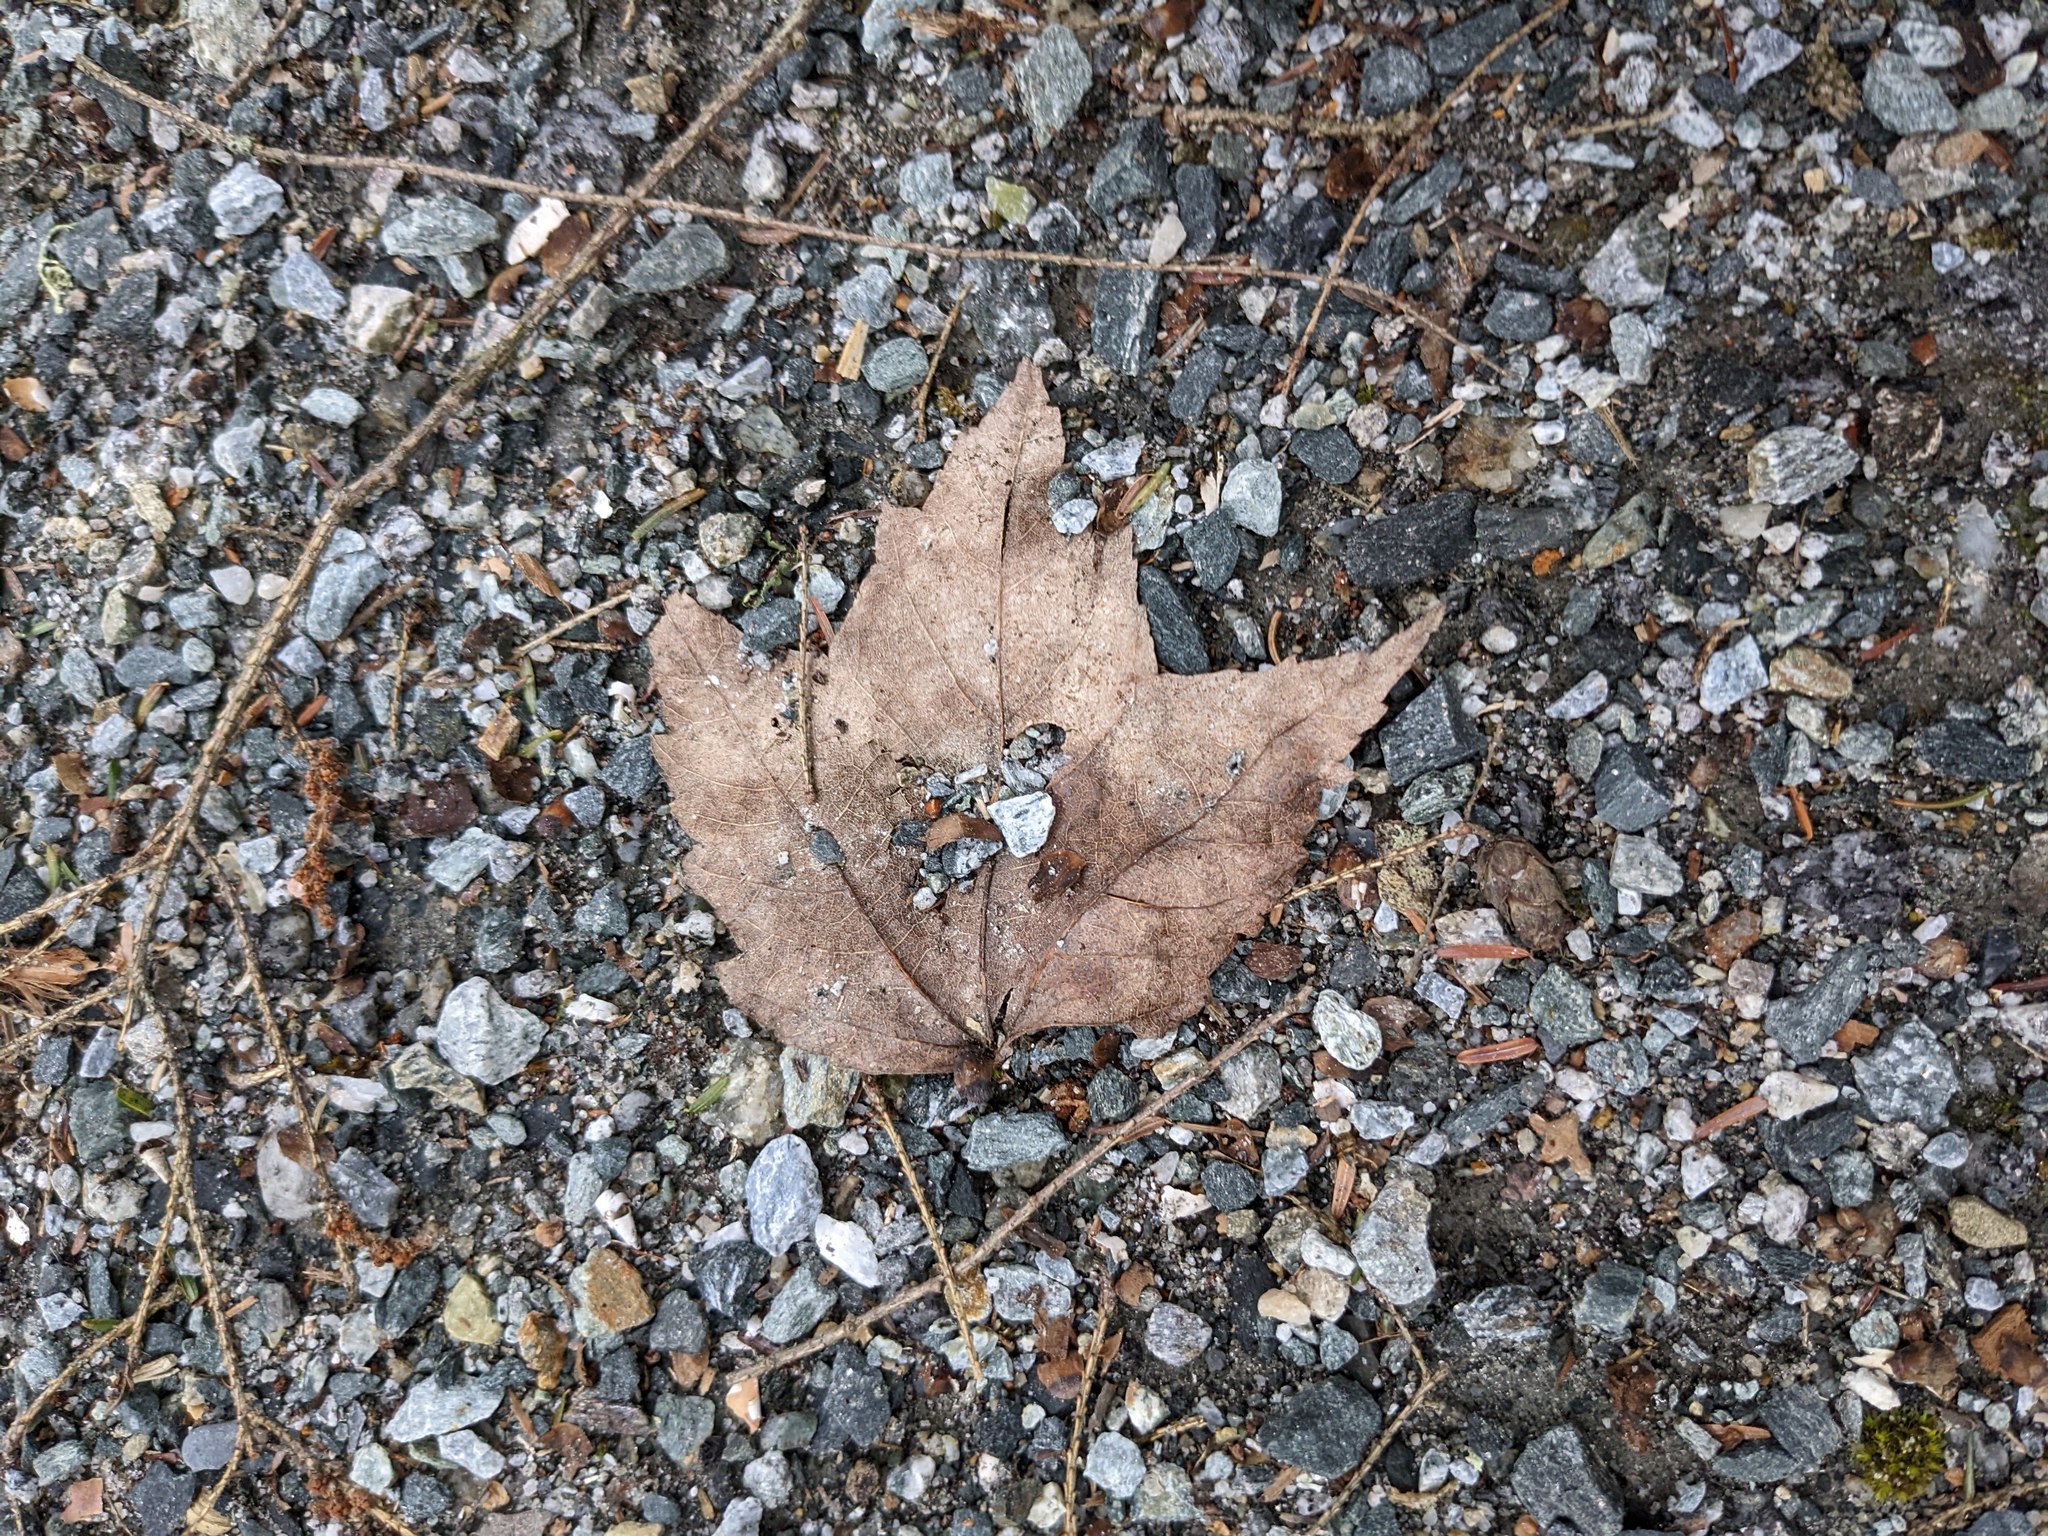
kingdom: Plantae
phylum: Tracheophyta
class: Magnoliopsida
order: Sapindales
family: Sapindaceae
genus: Acer
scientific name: Acer rubrum
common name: Red maple
